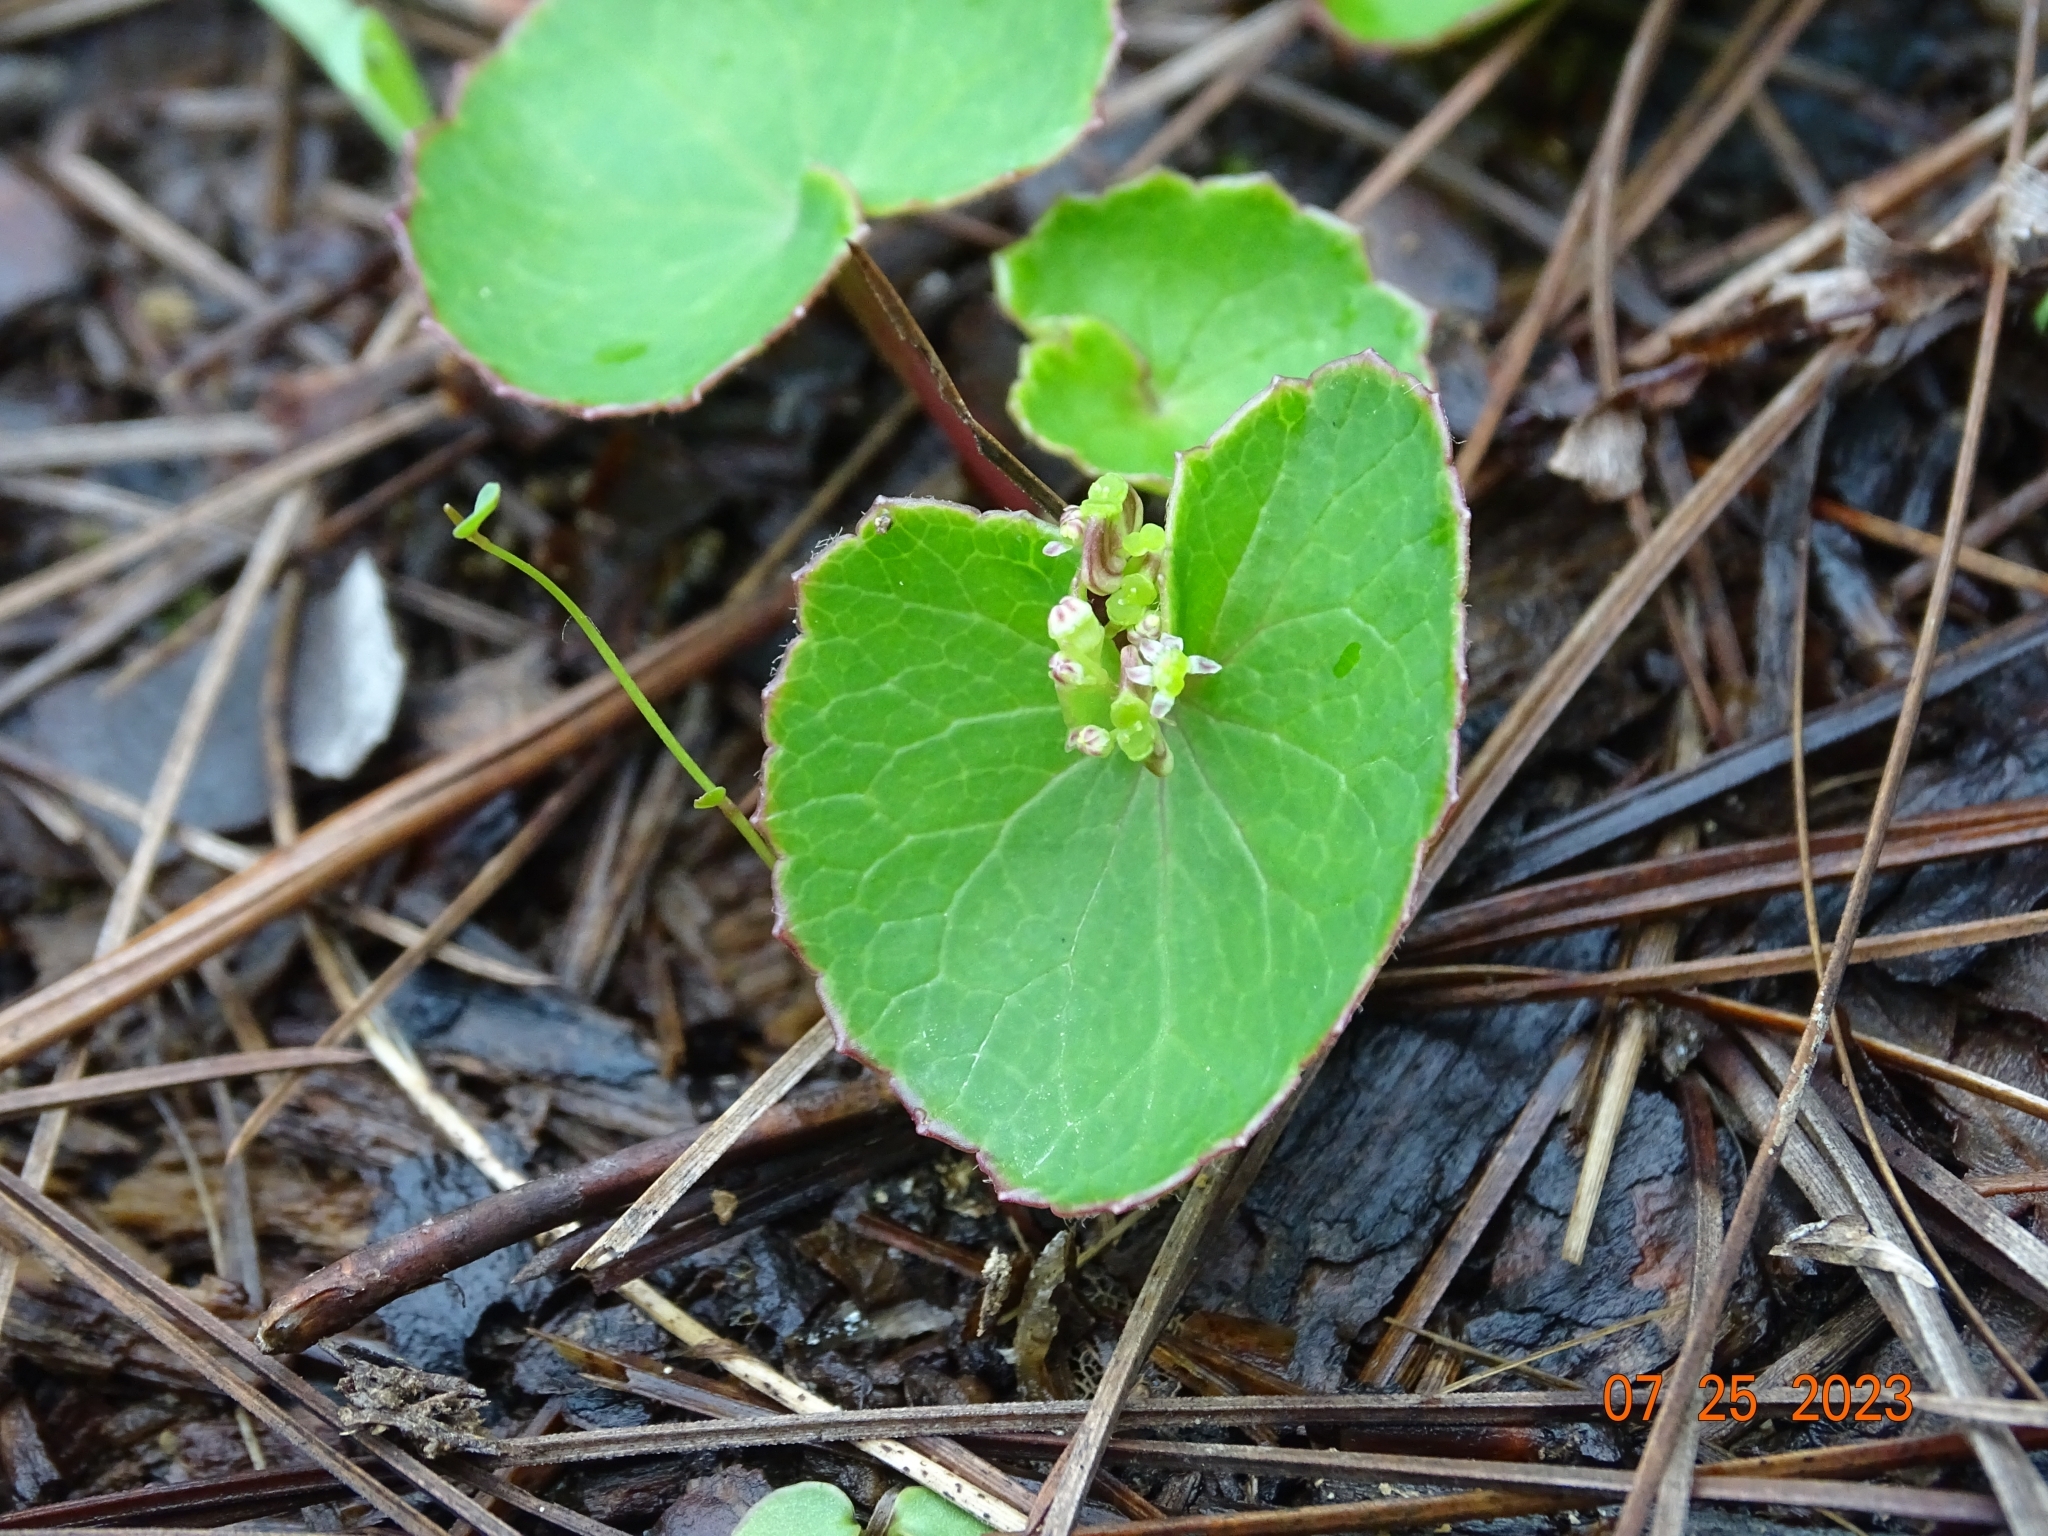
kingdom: Plantae
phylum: Tracheophyta
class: Magnoliopsida
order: Apiales
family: Apiaceae
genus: Micropleura
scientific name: Micropleura renifolia
